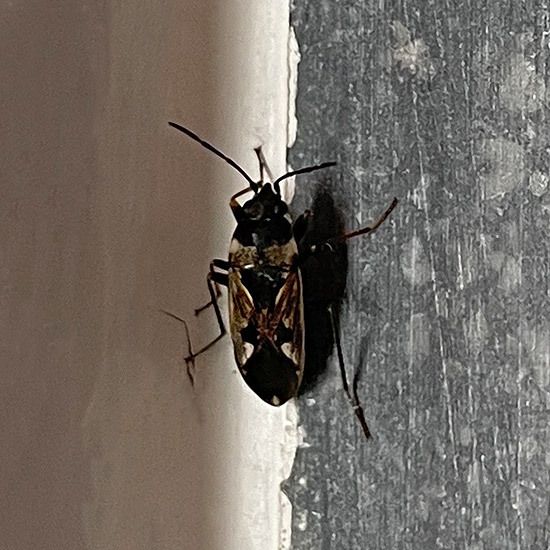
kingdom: Animalia
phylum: Arthropoda
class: Insecta
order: Hemiptera
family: Rhyparochromidae
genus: Rhyparochromus
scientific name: Rhyparochromus vulgaris
